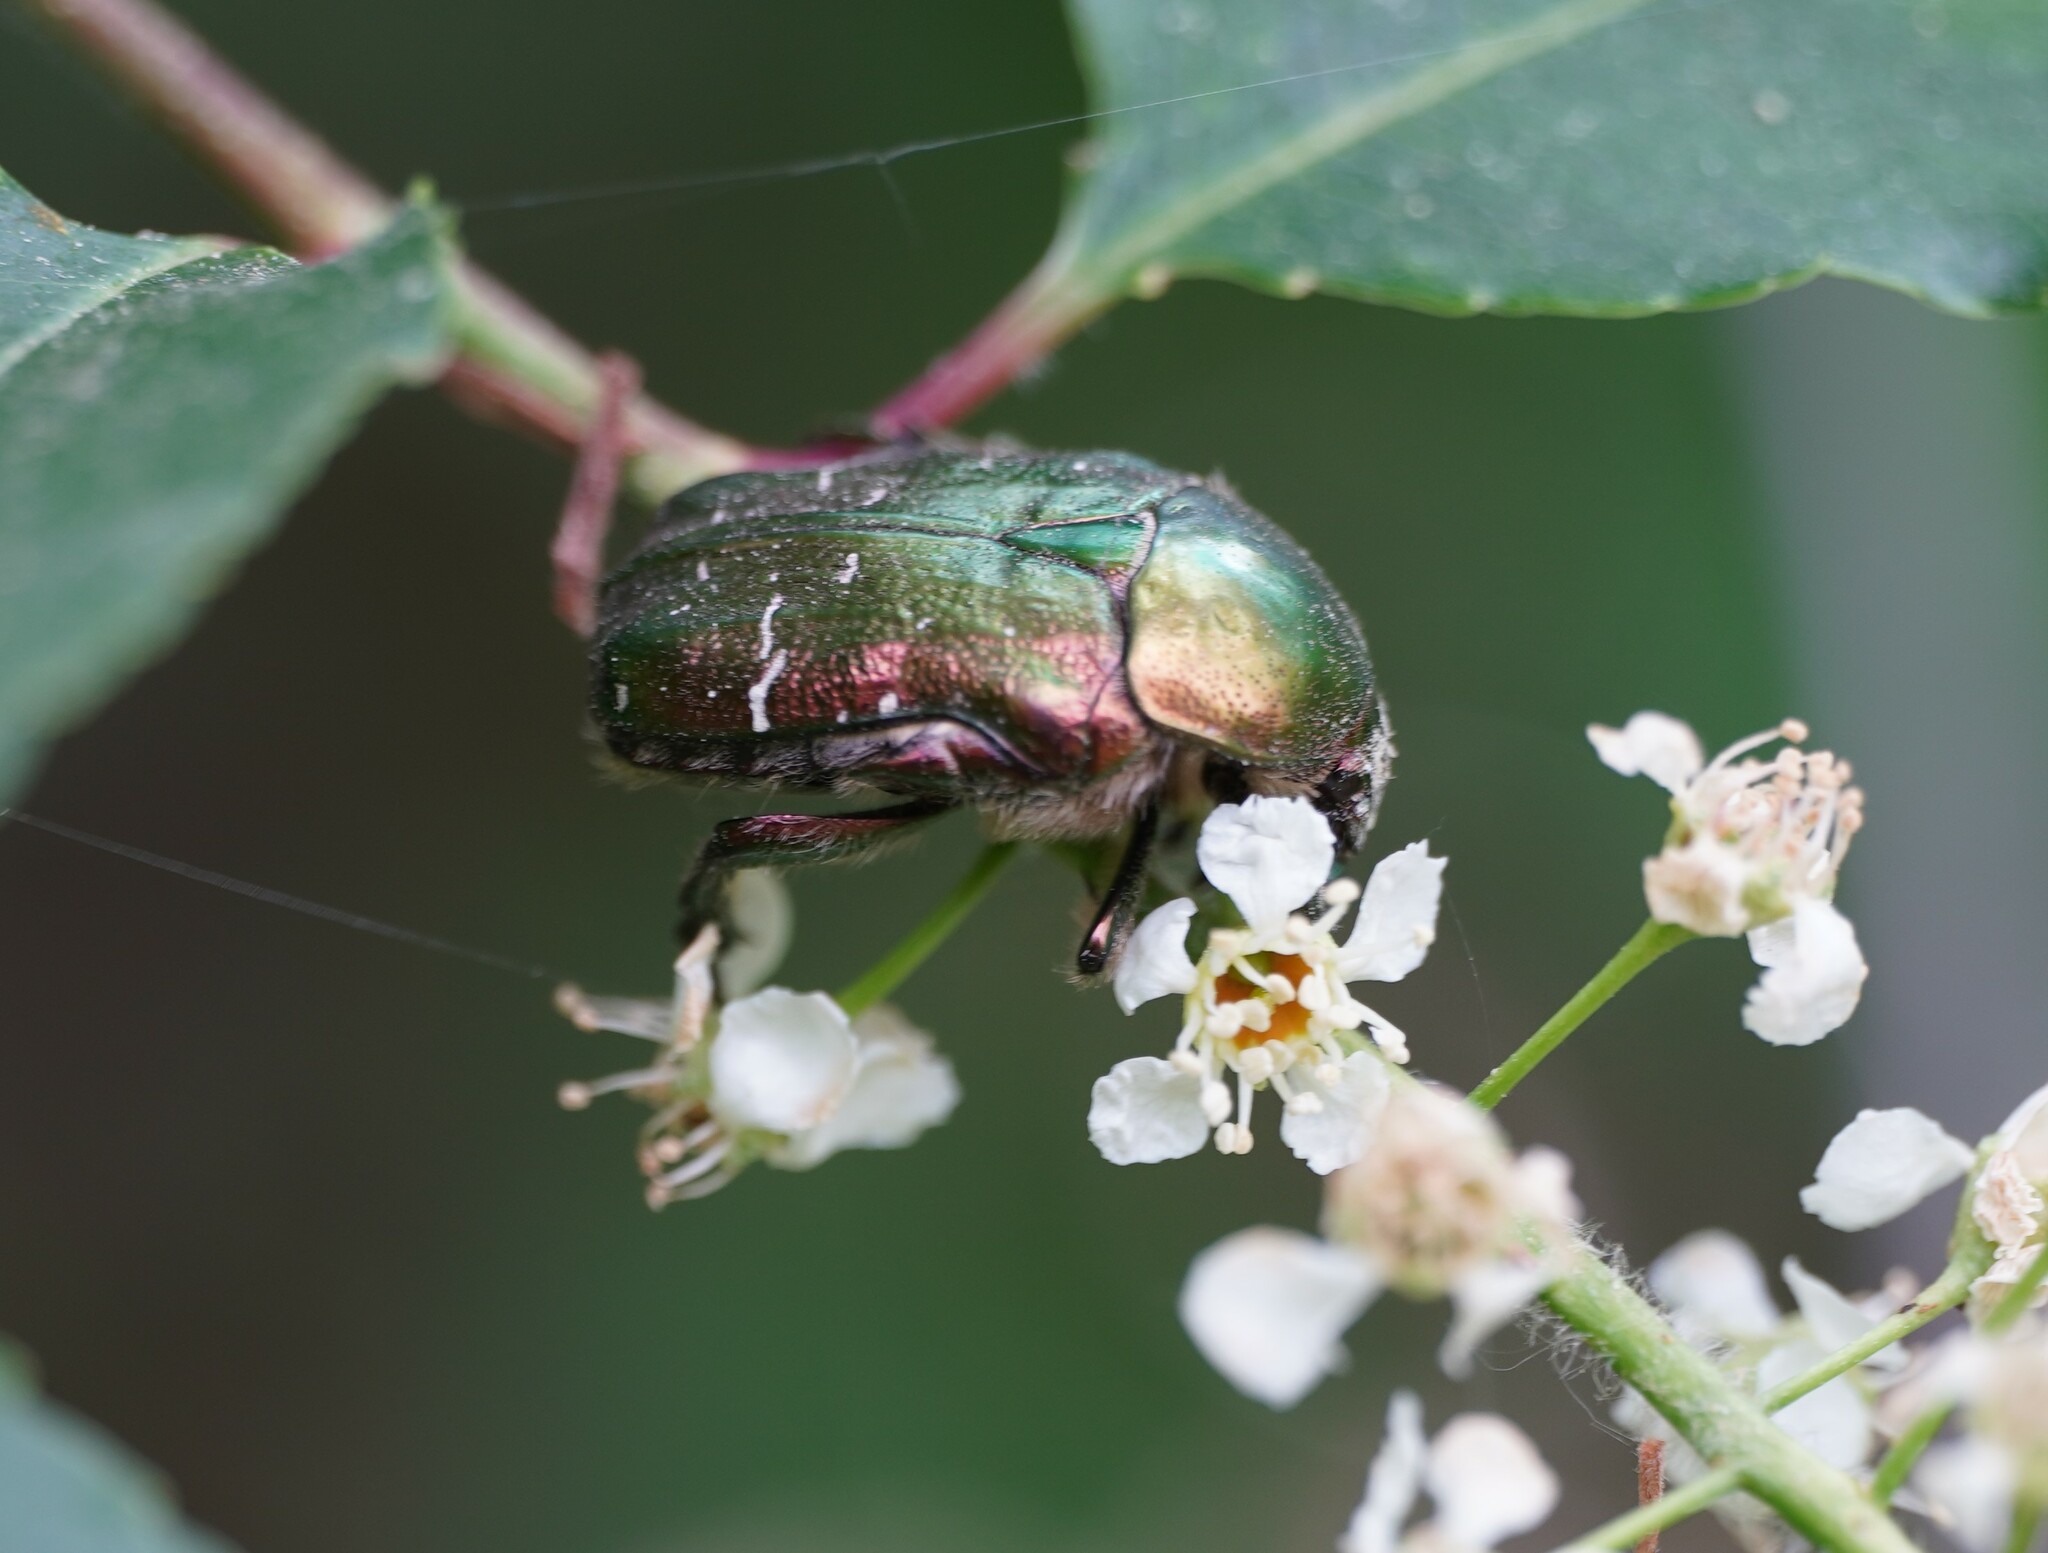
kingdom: Animalia
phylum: Arthropoda
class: Insecta
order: Coleoptera
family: Scarabaeidae
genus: Cetonia
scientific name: Cetonia aurata
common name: Rose chafer
